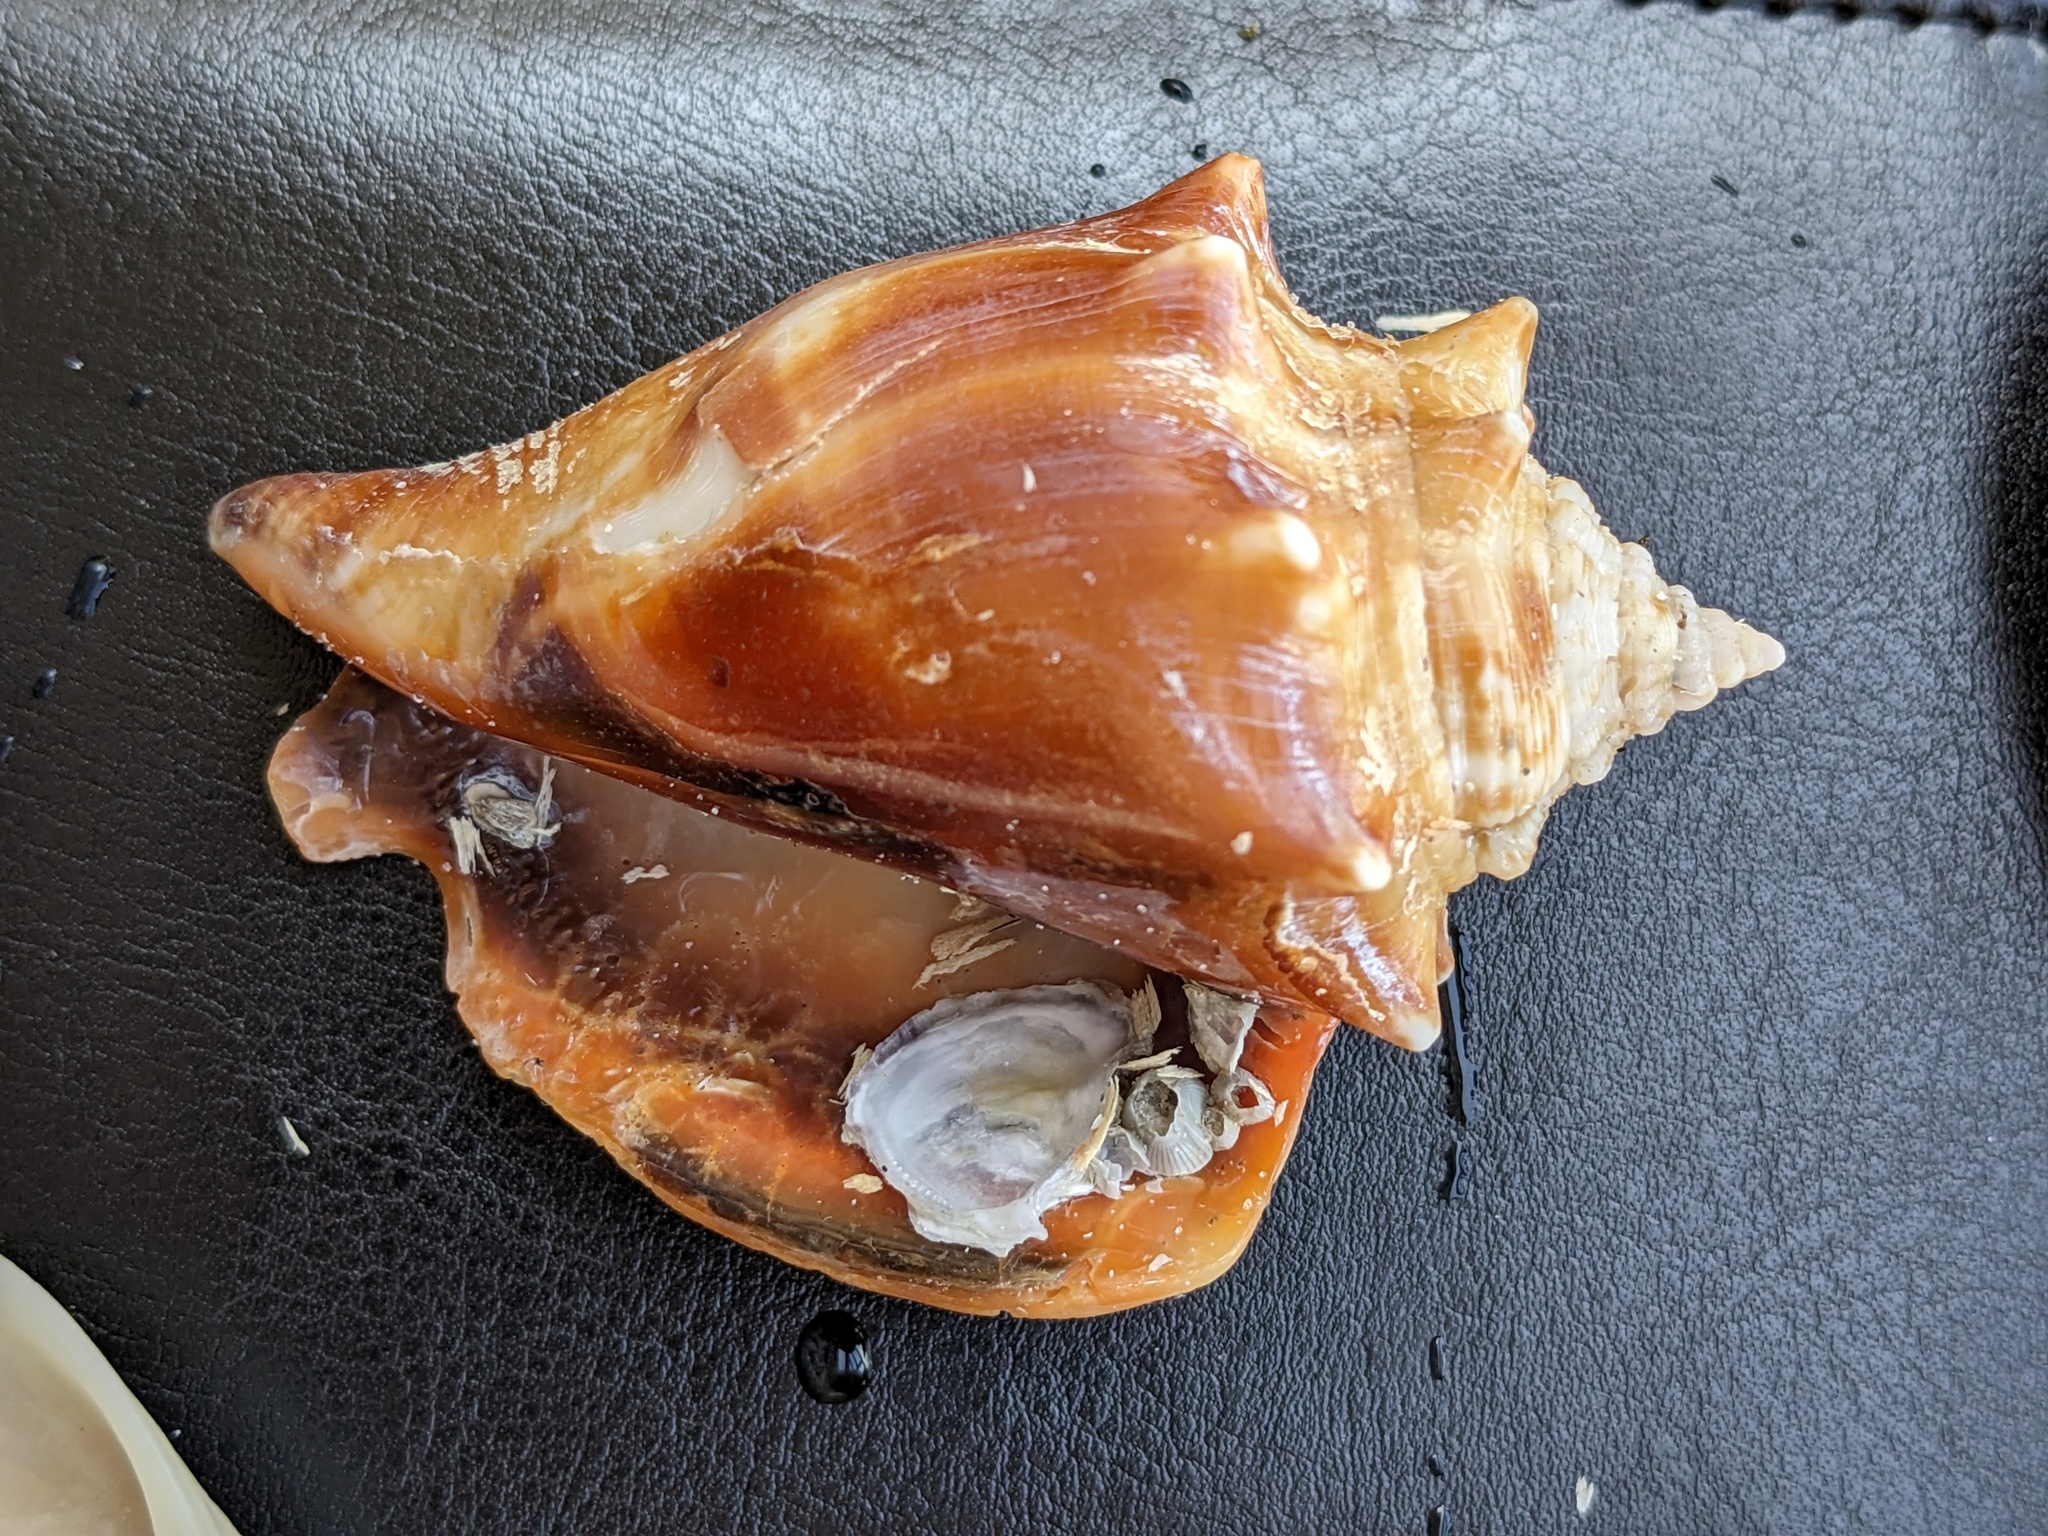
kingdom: Animalia
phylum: Mollusca
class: Gastropoda
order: Littorinimorpha
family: Strombidae
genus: Strombus
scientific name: Strombus alatus
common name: Florida fighting conch
